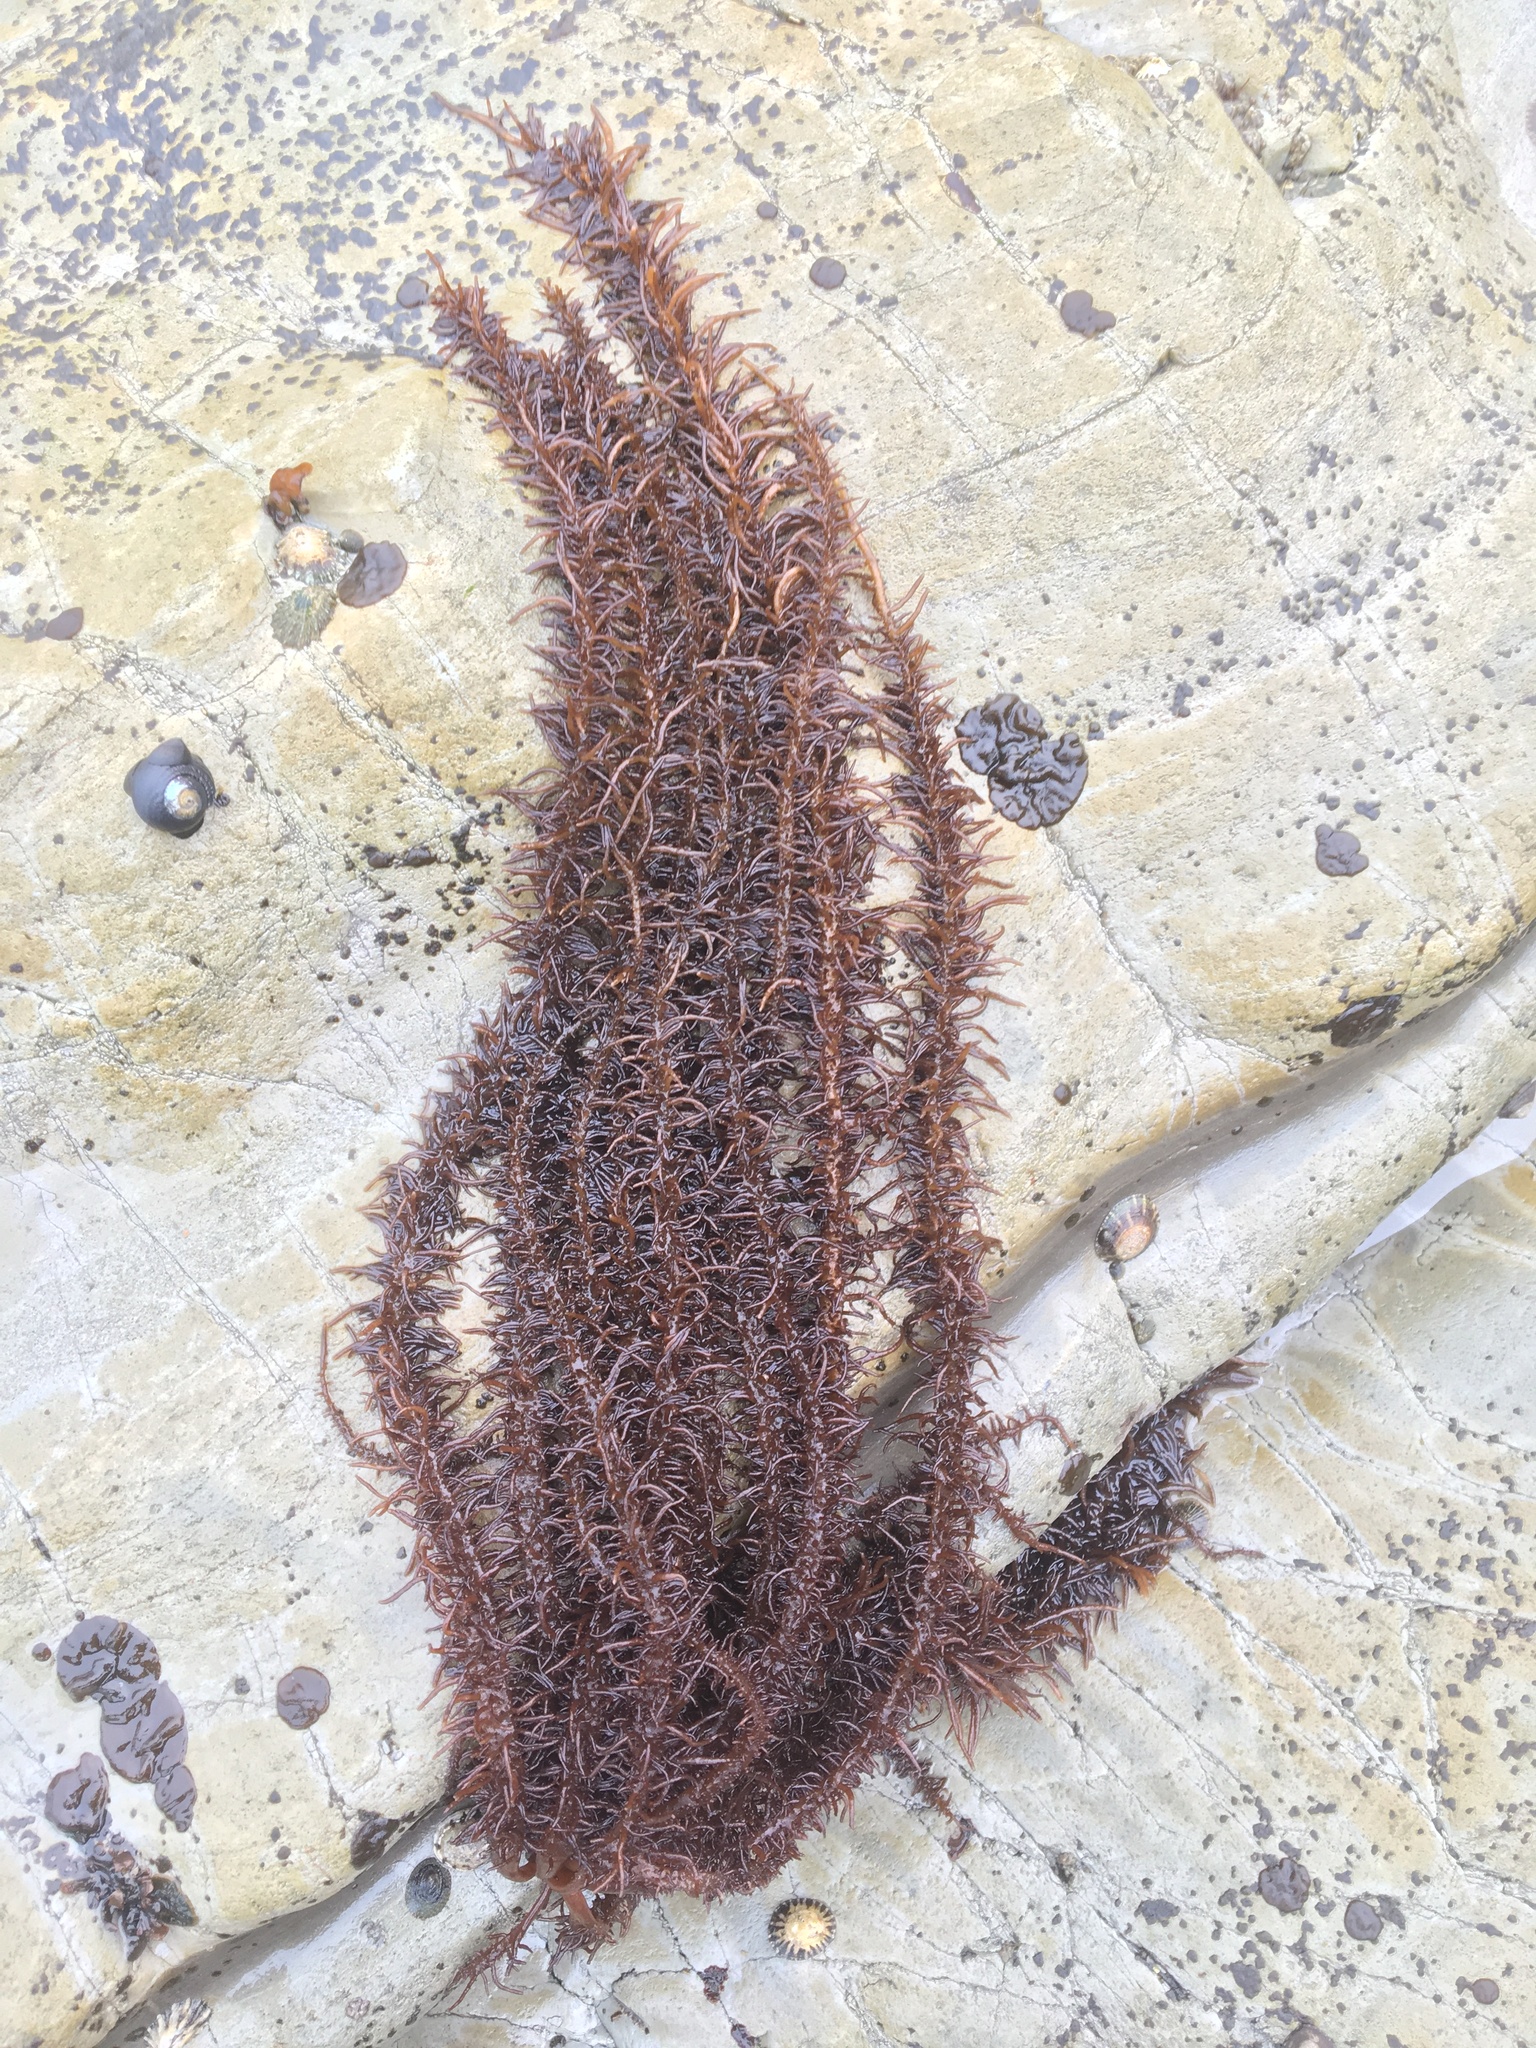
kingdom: Plantae
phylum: Rhodophyta
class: Florideophyceae
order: Nemaliales
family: Liagoraceae
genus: Cumagloia
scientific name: Cumagloia andersonii
